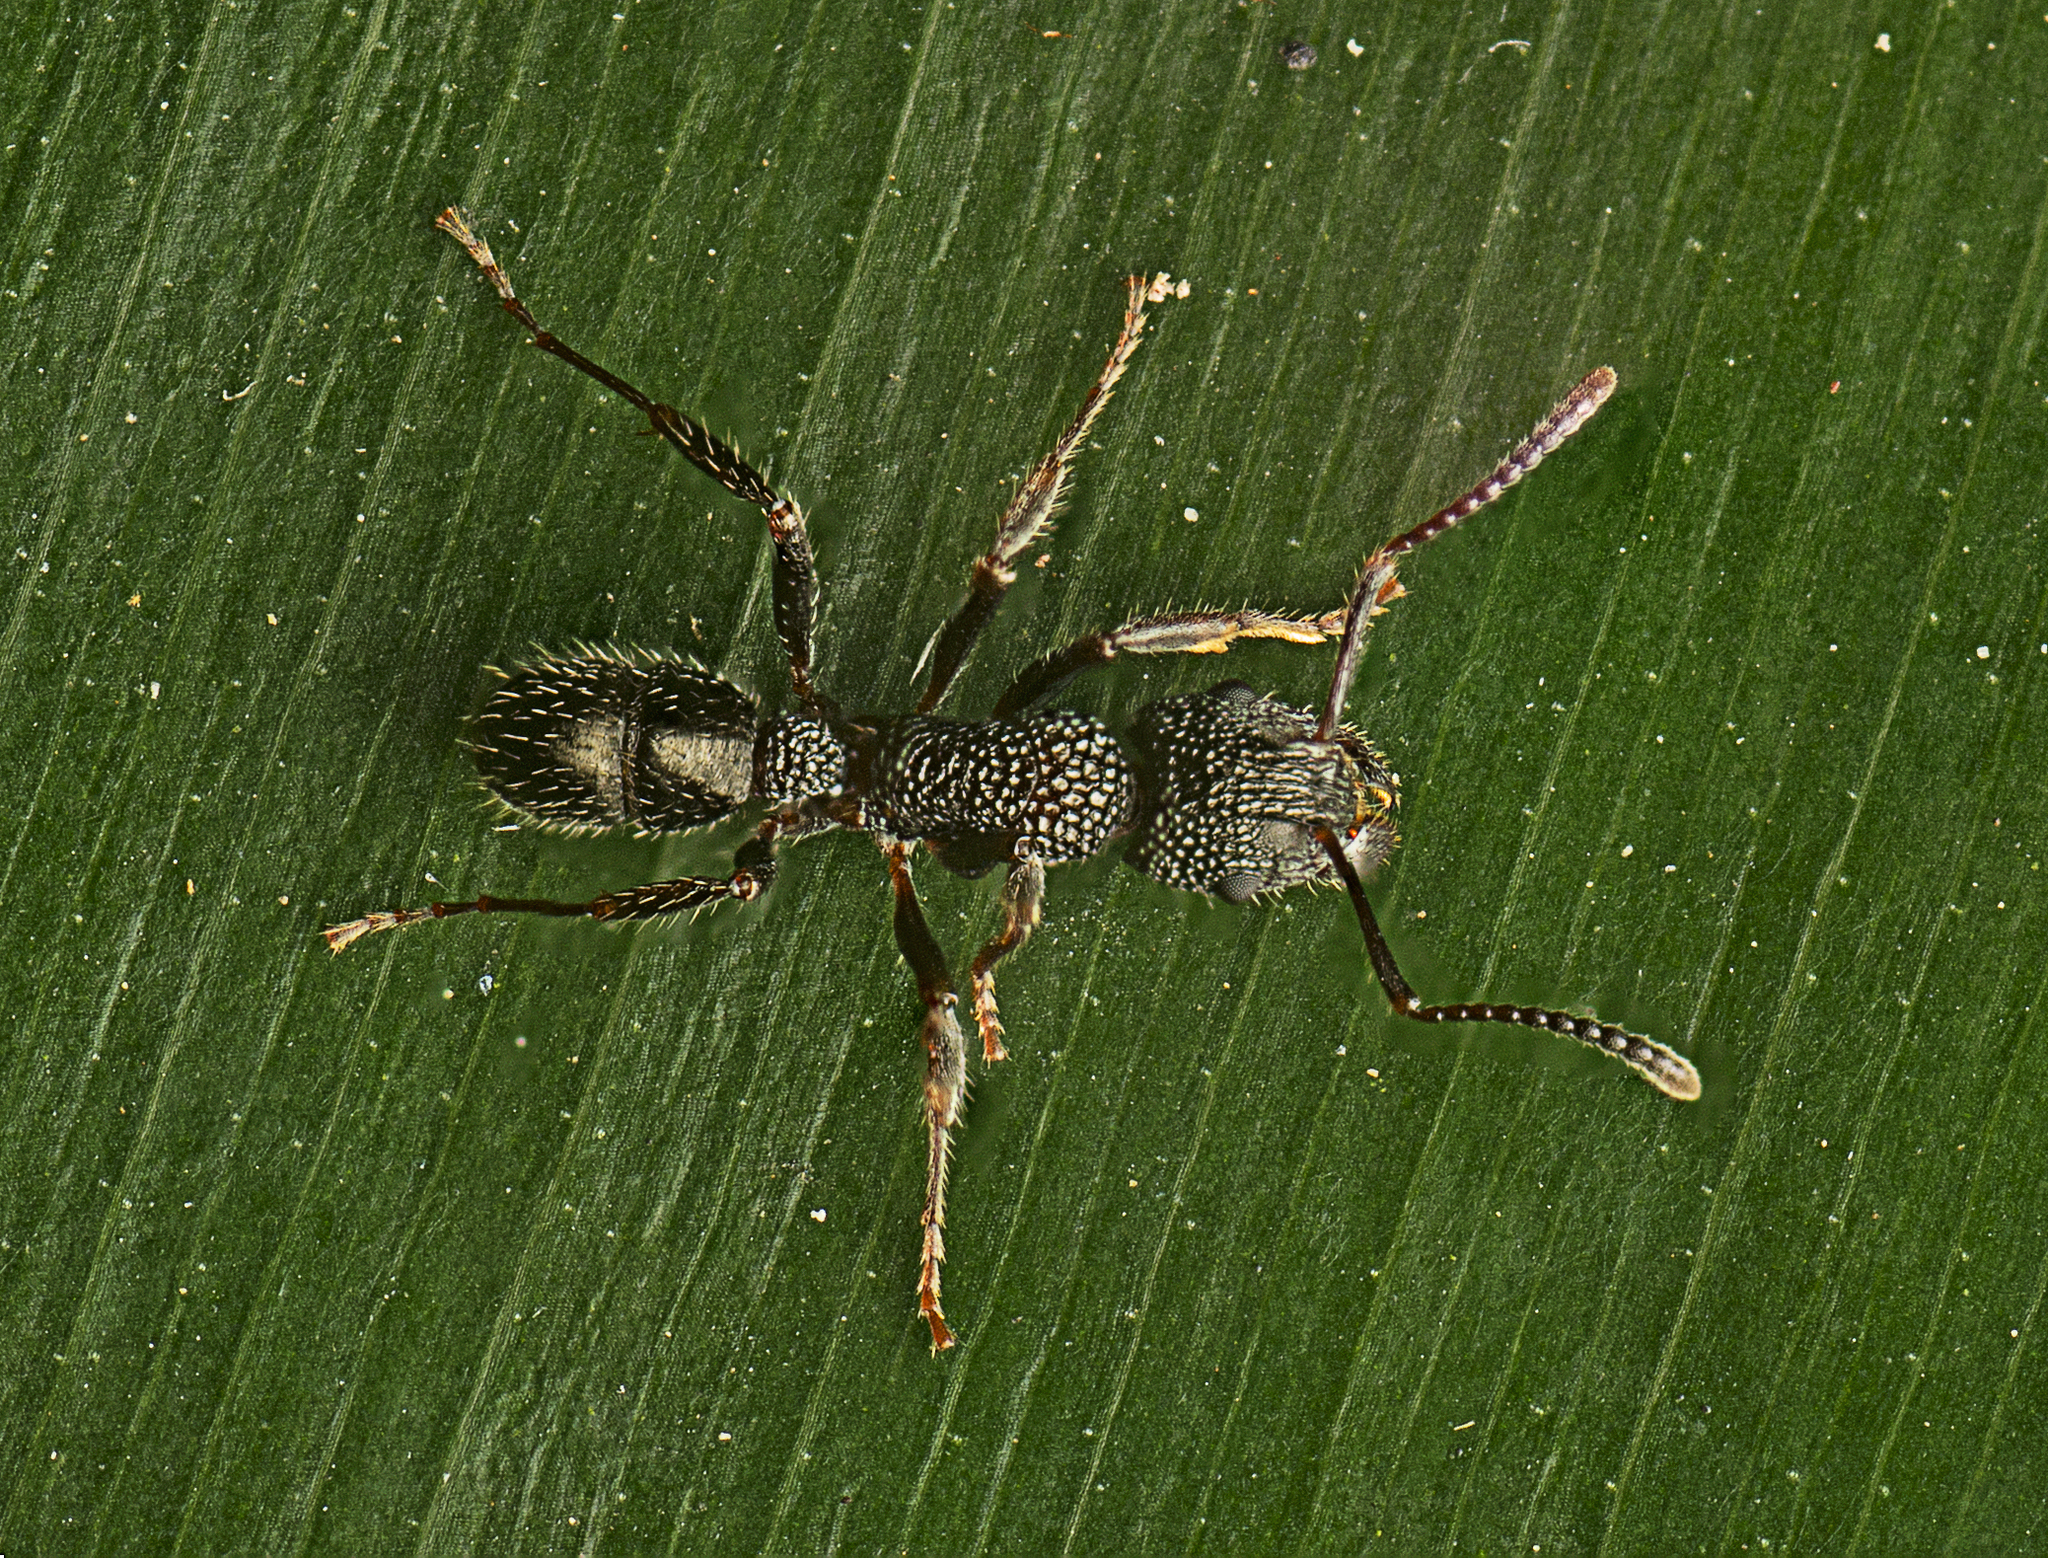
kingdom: Animalia
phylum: Arthropoda
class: Insecta
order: Hymenoptera
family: Formicidae
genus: Rhytidoponera
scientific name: Rhytidoponera anceps
